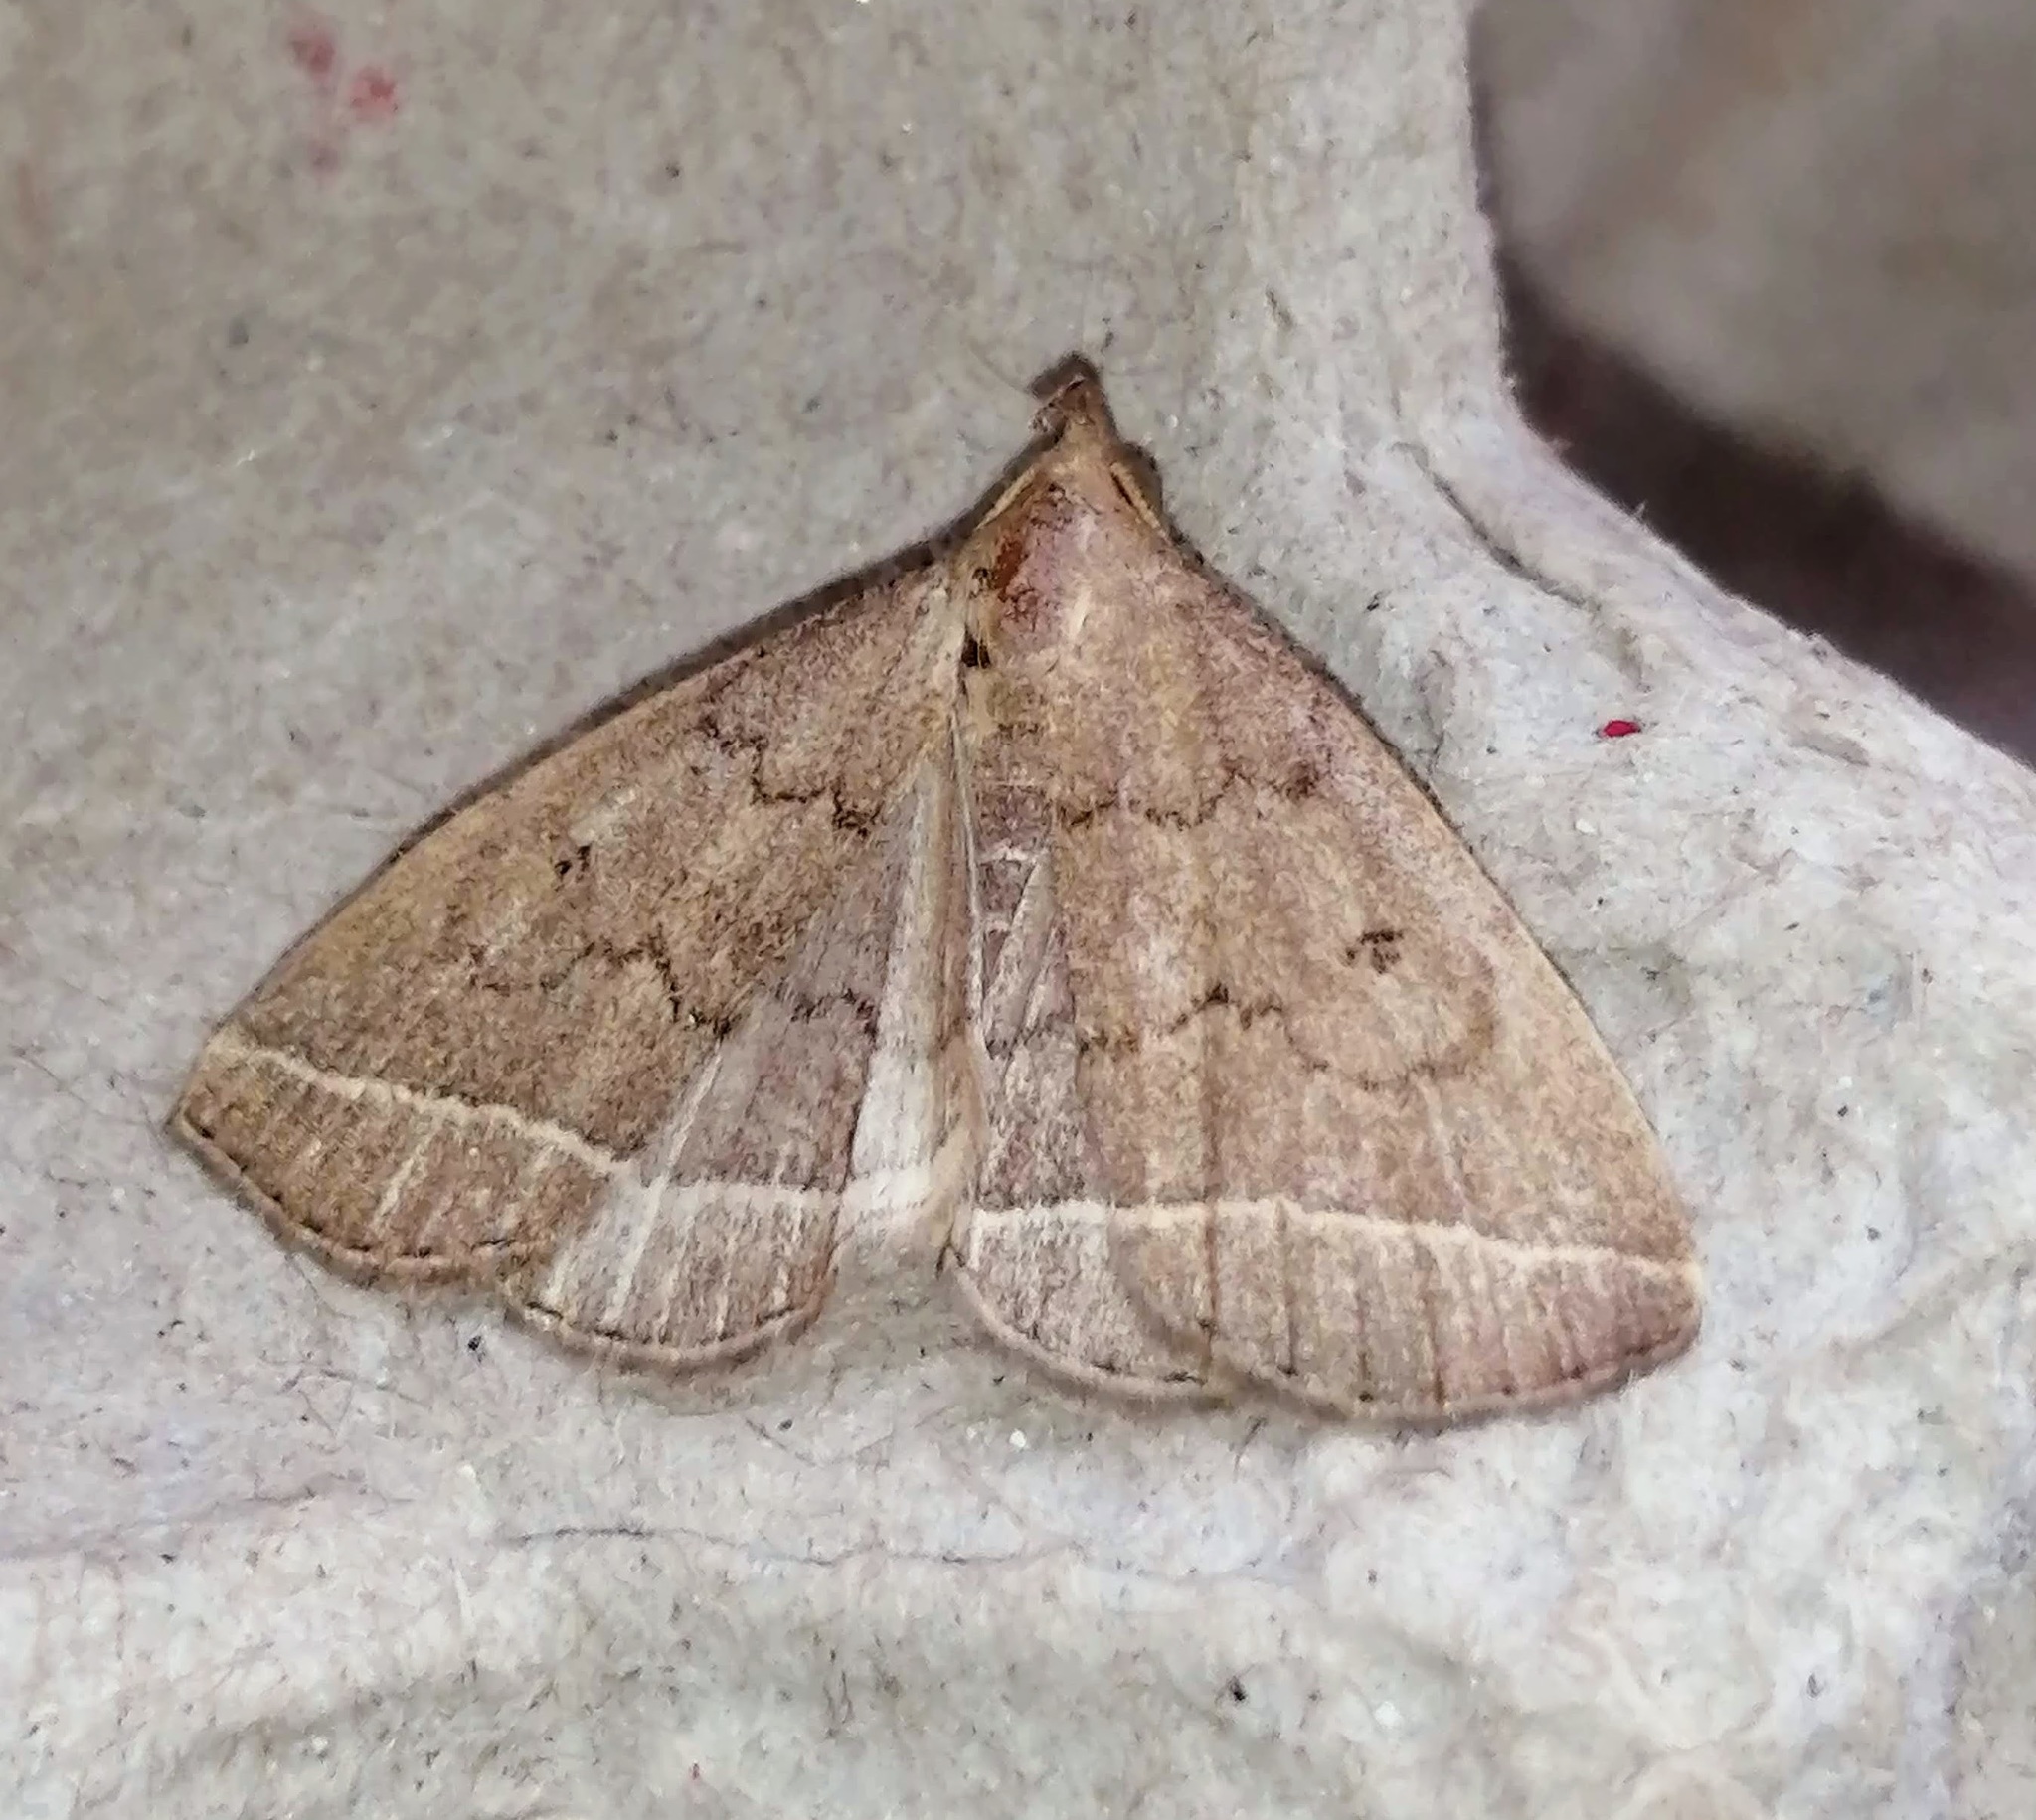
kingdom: Animalia
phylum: Arthropoda
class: Insecta
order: Lepidoptera
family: Erebidae
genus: Zanclognatha
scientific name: Zanclognatha jacchusalis
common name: Yellowish zanclognatha
